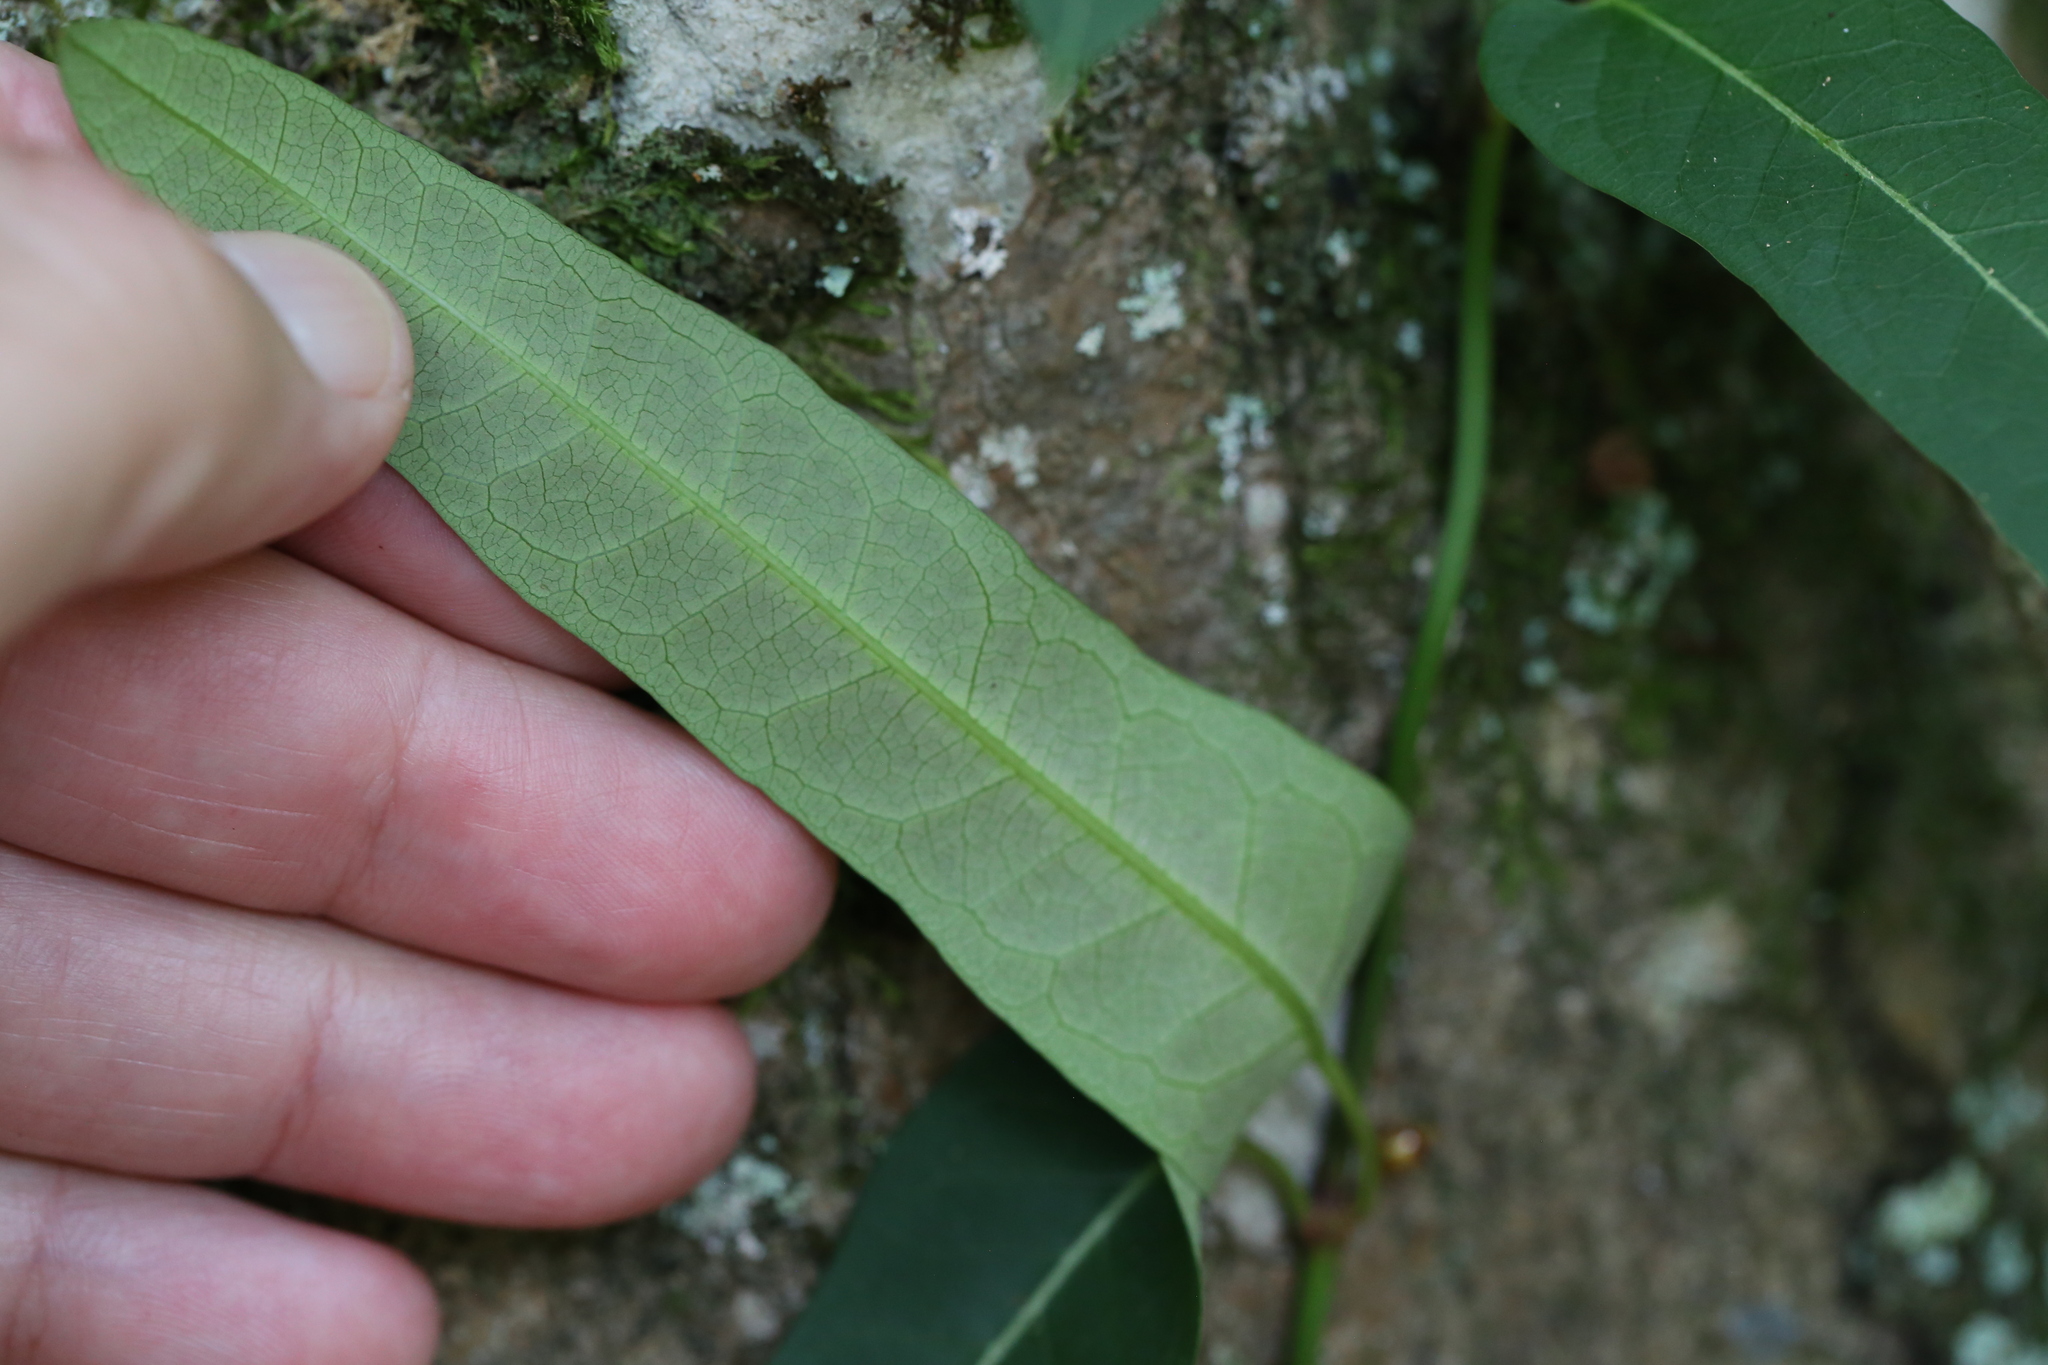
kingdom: Plantae
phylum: Tracheophyta
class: Magnoliopsida
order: Gentianales
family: Apocynaceae
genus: Parsonsia
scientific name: Parsonsia straminea
